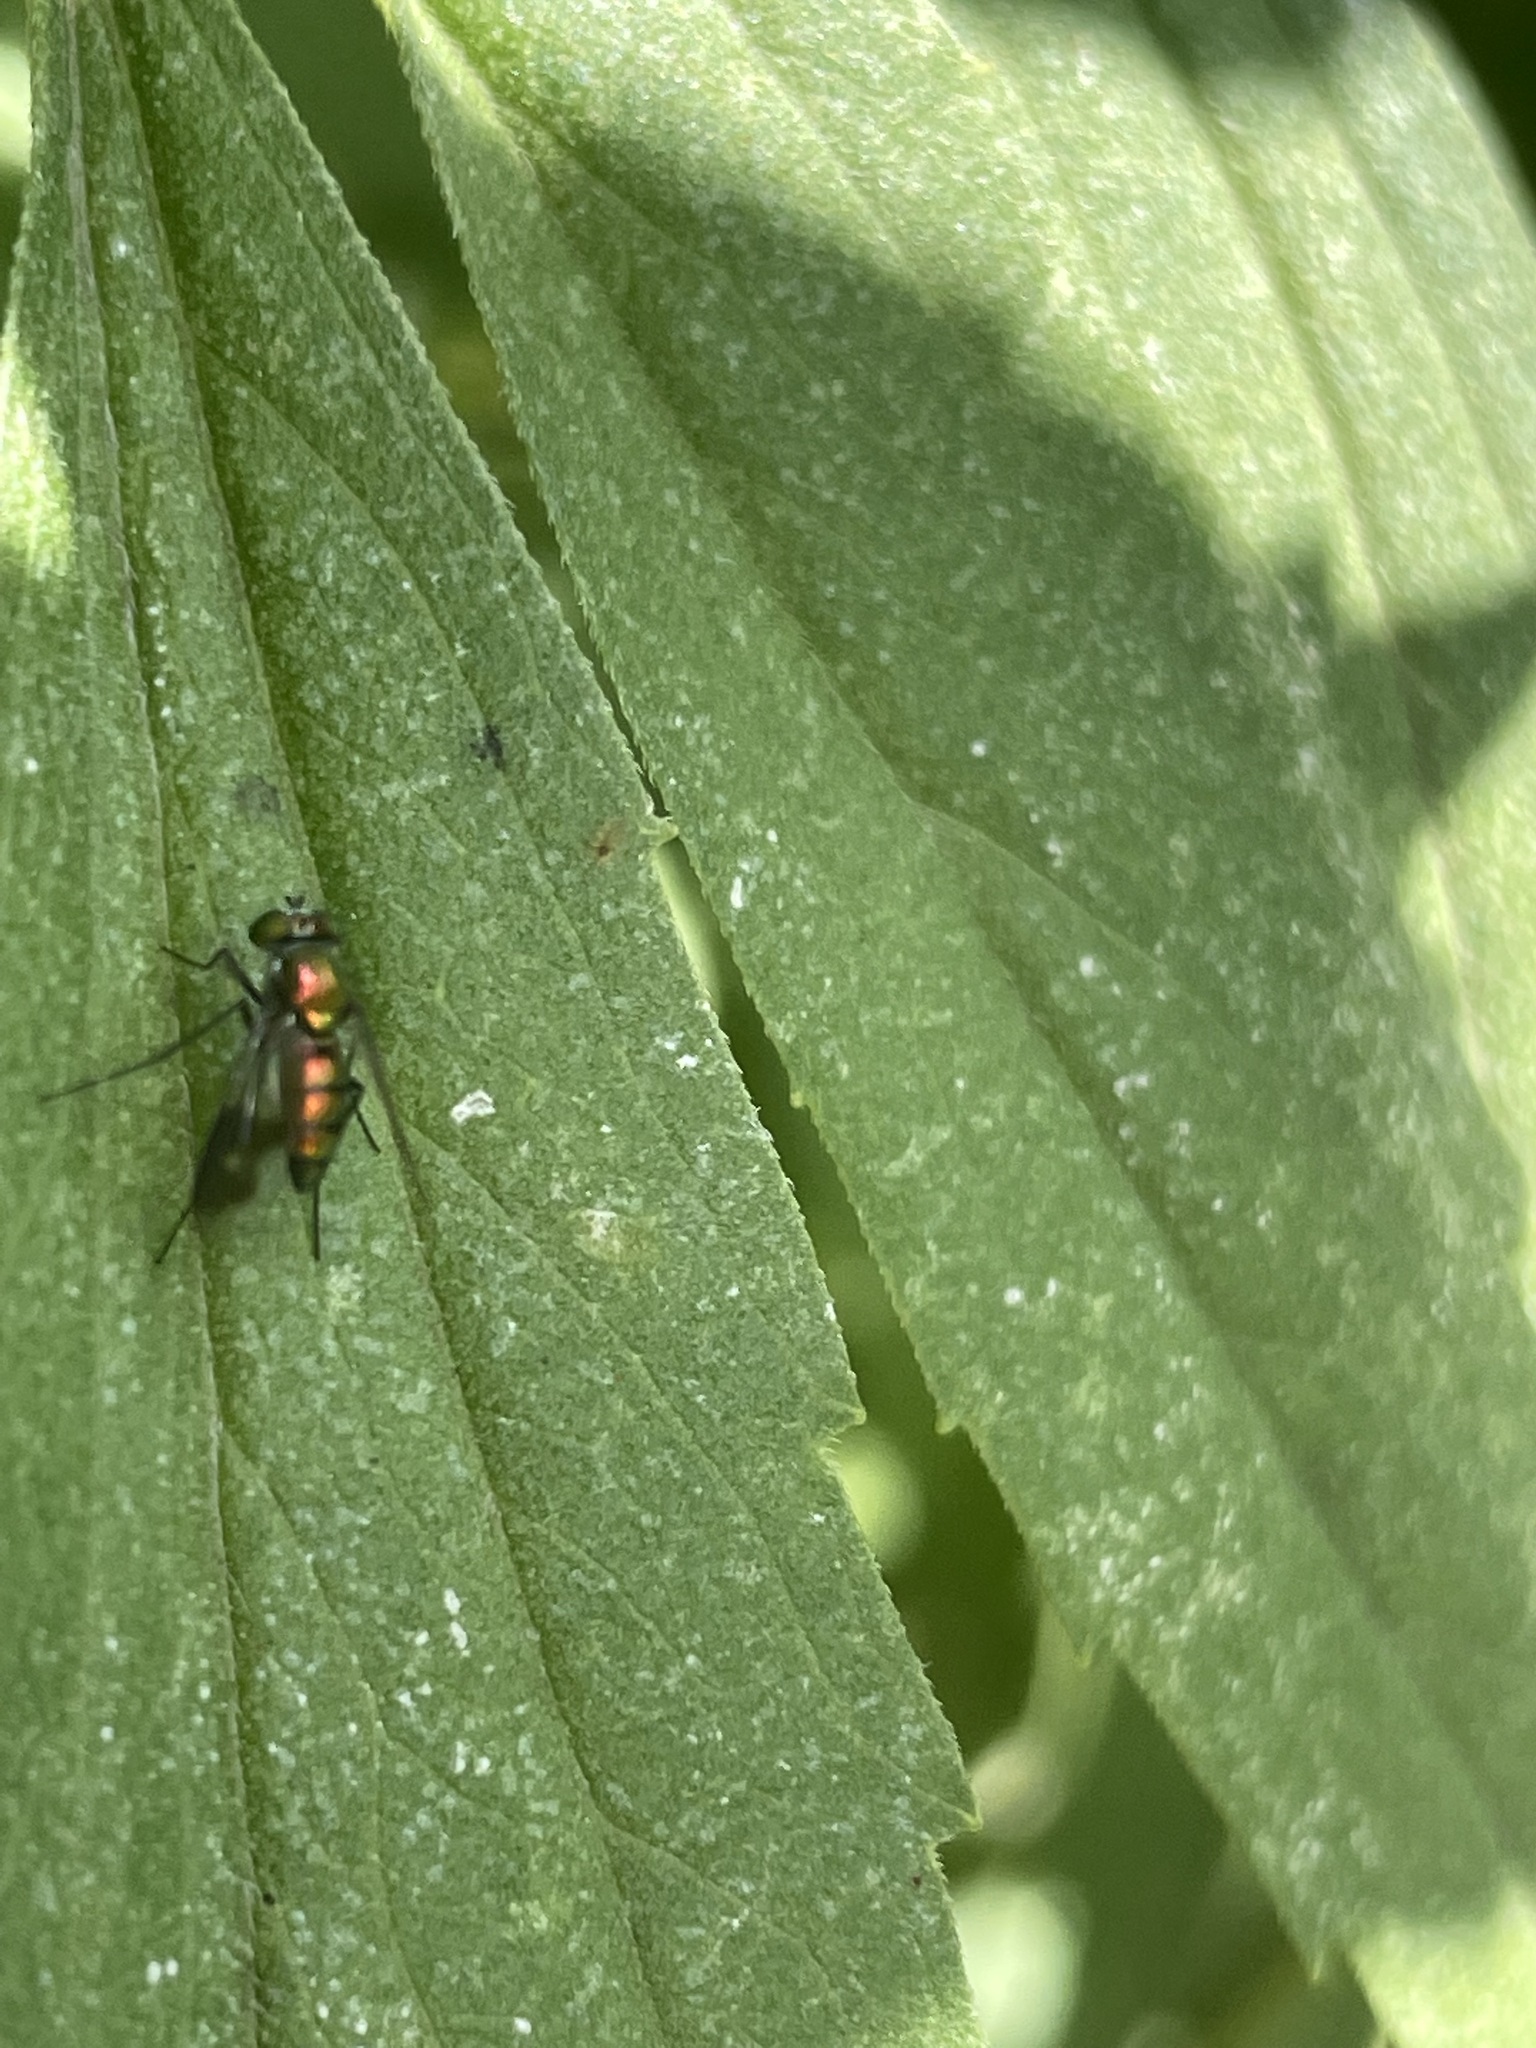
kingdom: Animalia
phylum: Arthropoda
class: Insecta
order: Diptera
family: Dolichopodidae
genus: Condylostylus
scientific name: Condylostylus patibulatus
